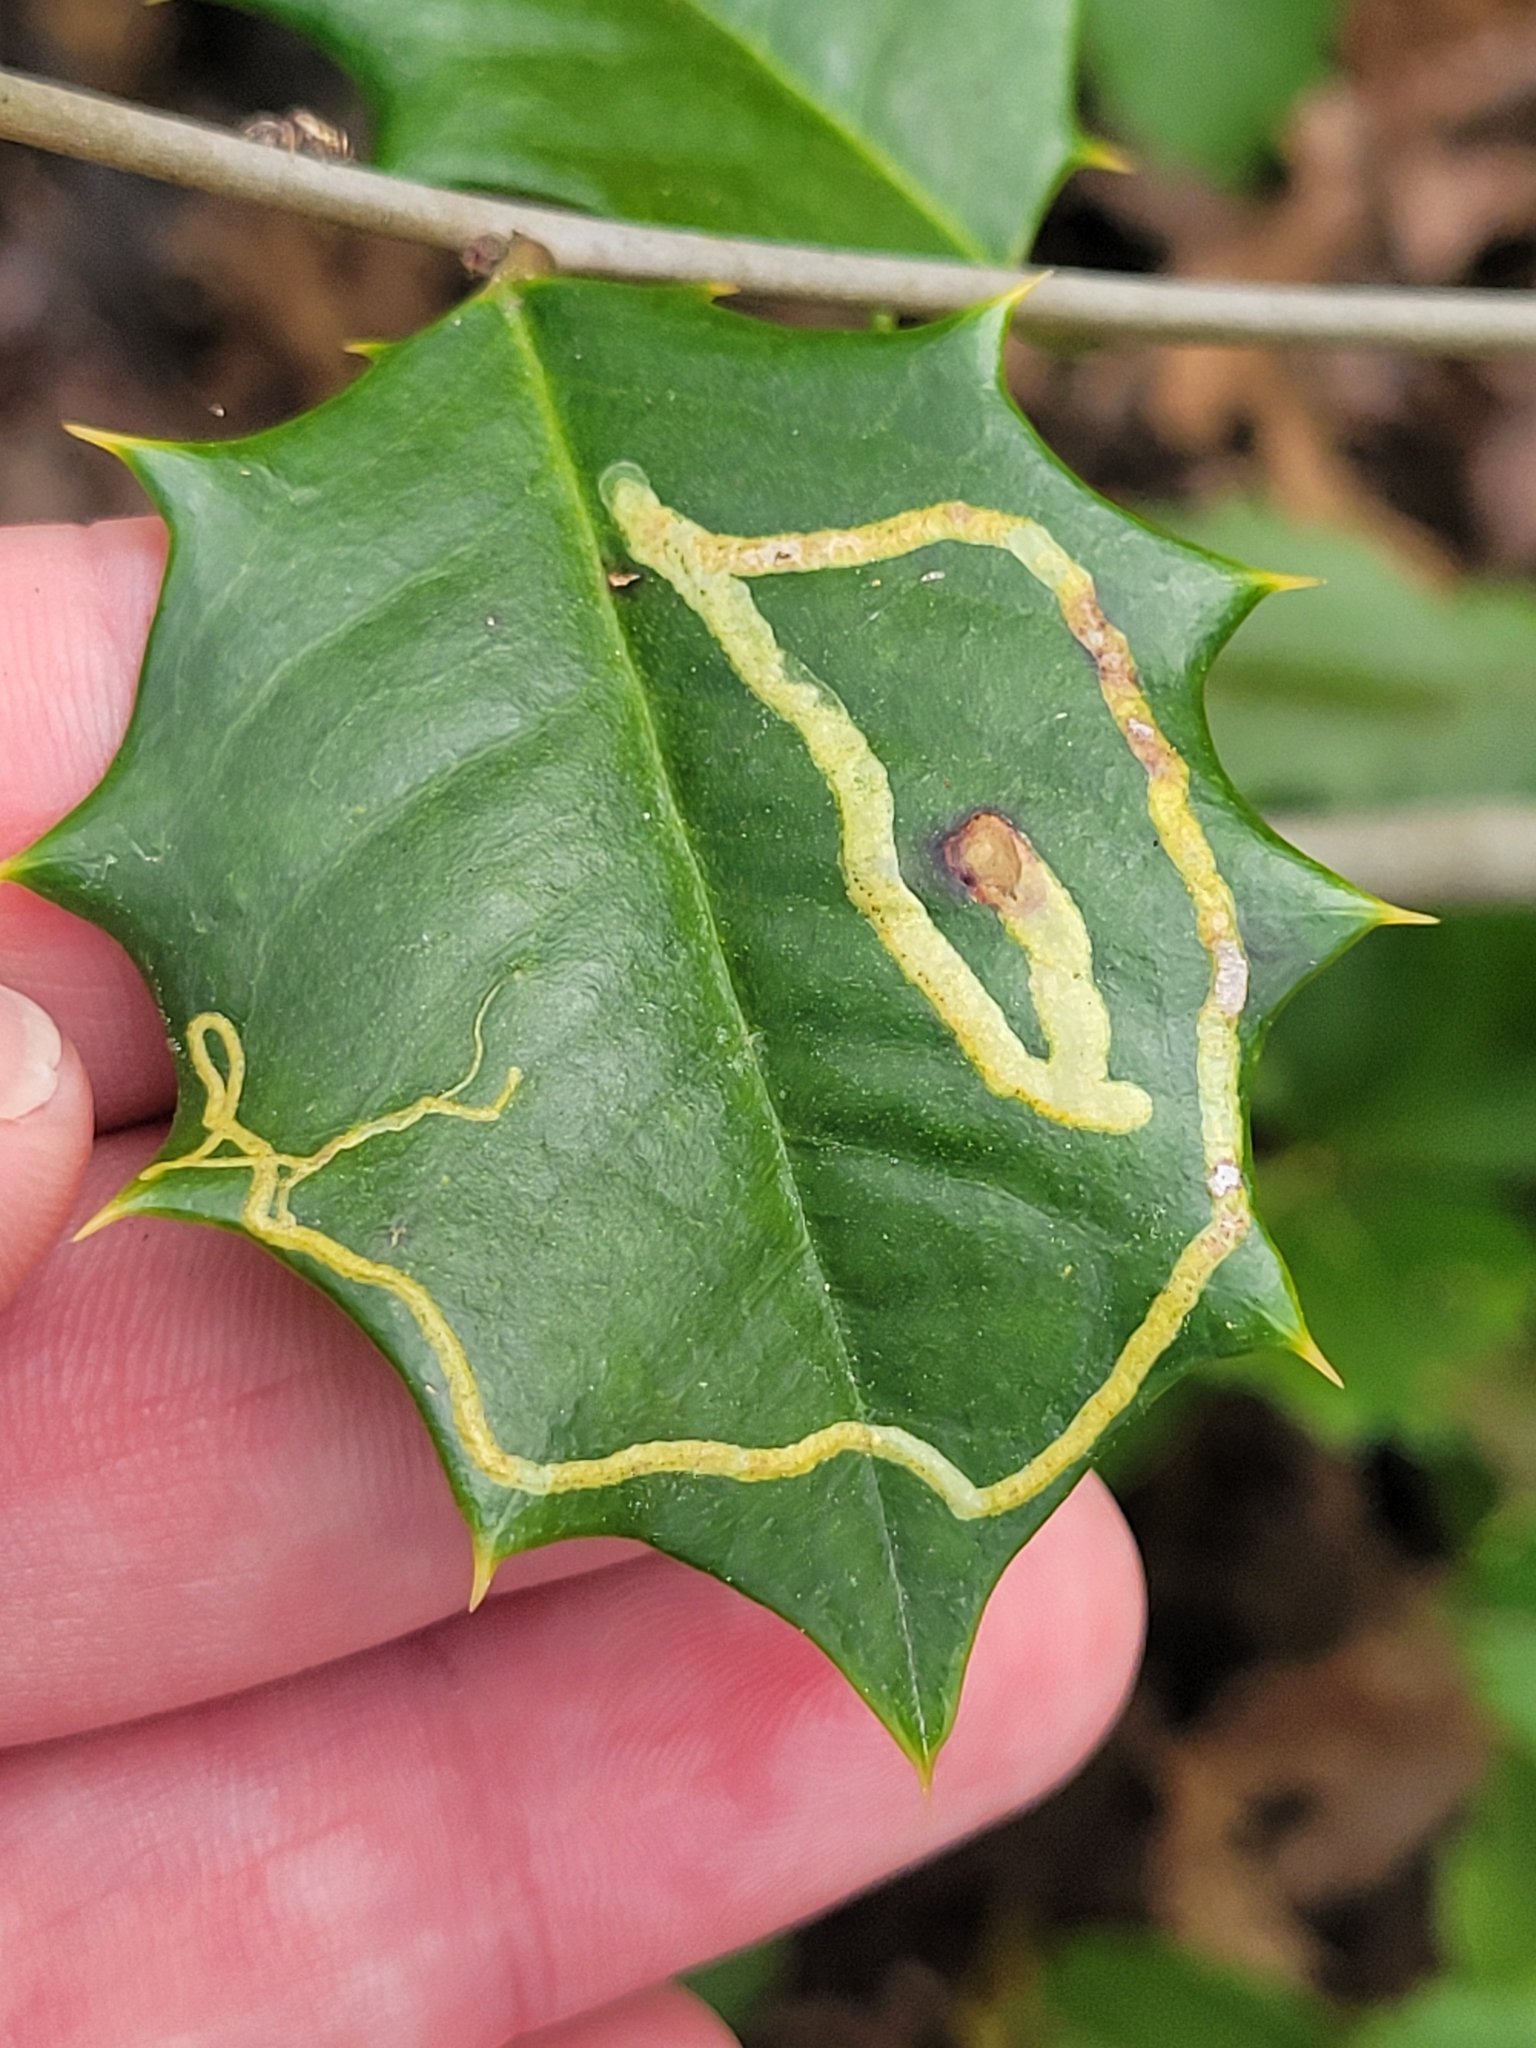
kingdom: Animalia
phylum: Arthropoda
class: Insecta
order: Diptera
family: Agromyzidae
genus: Phytomyza
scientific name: Phytomyza opacae
